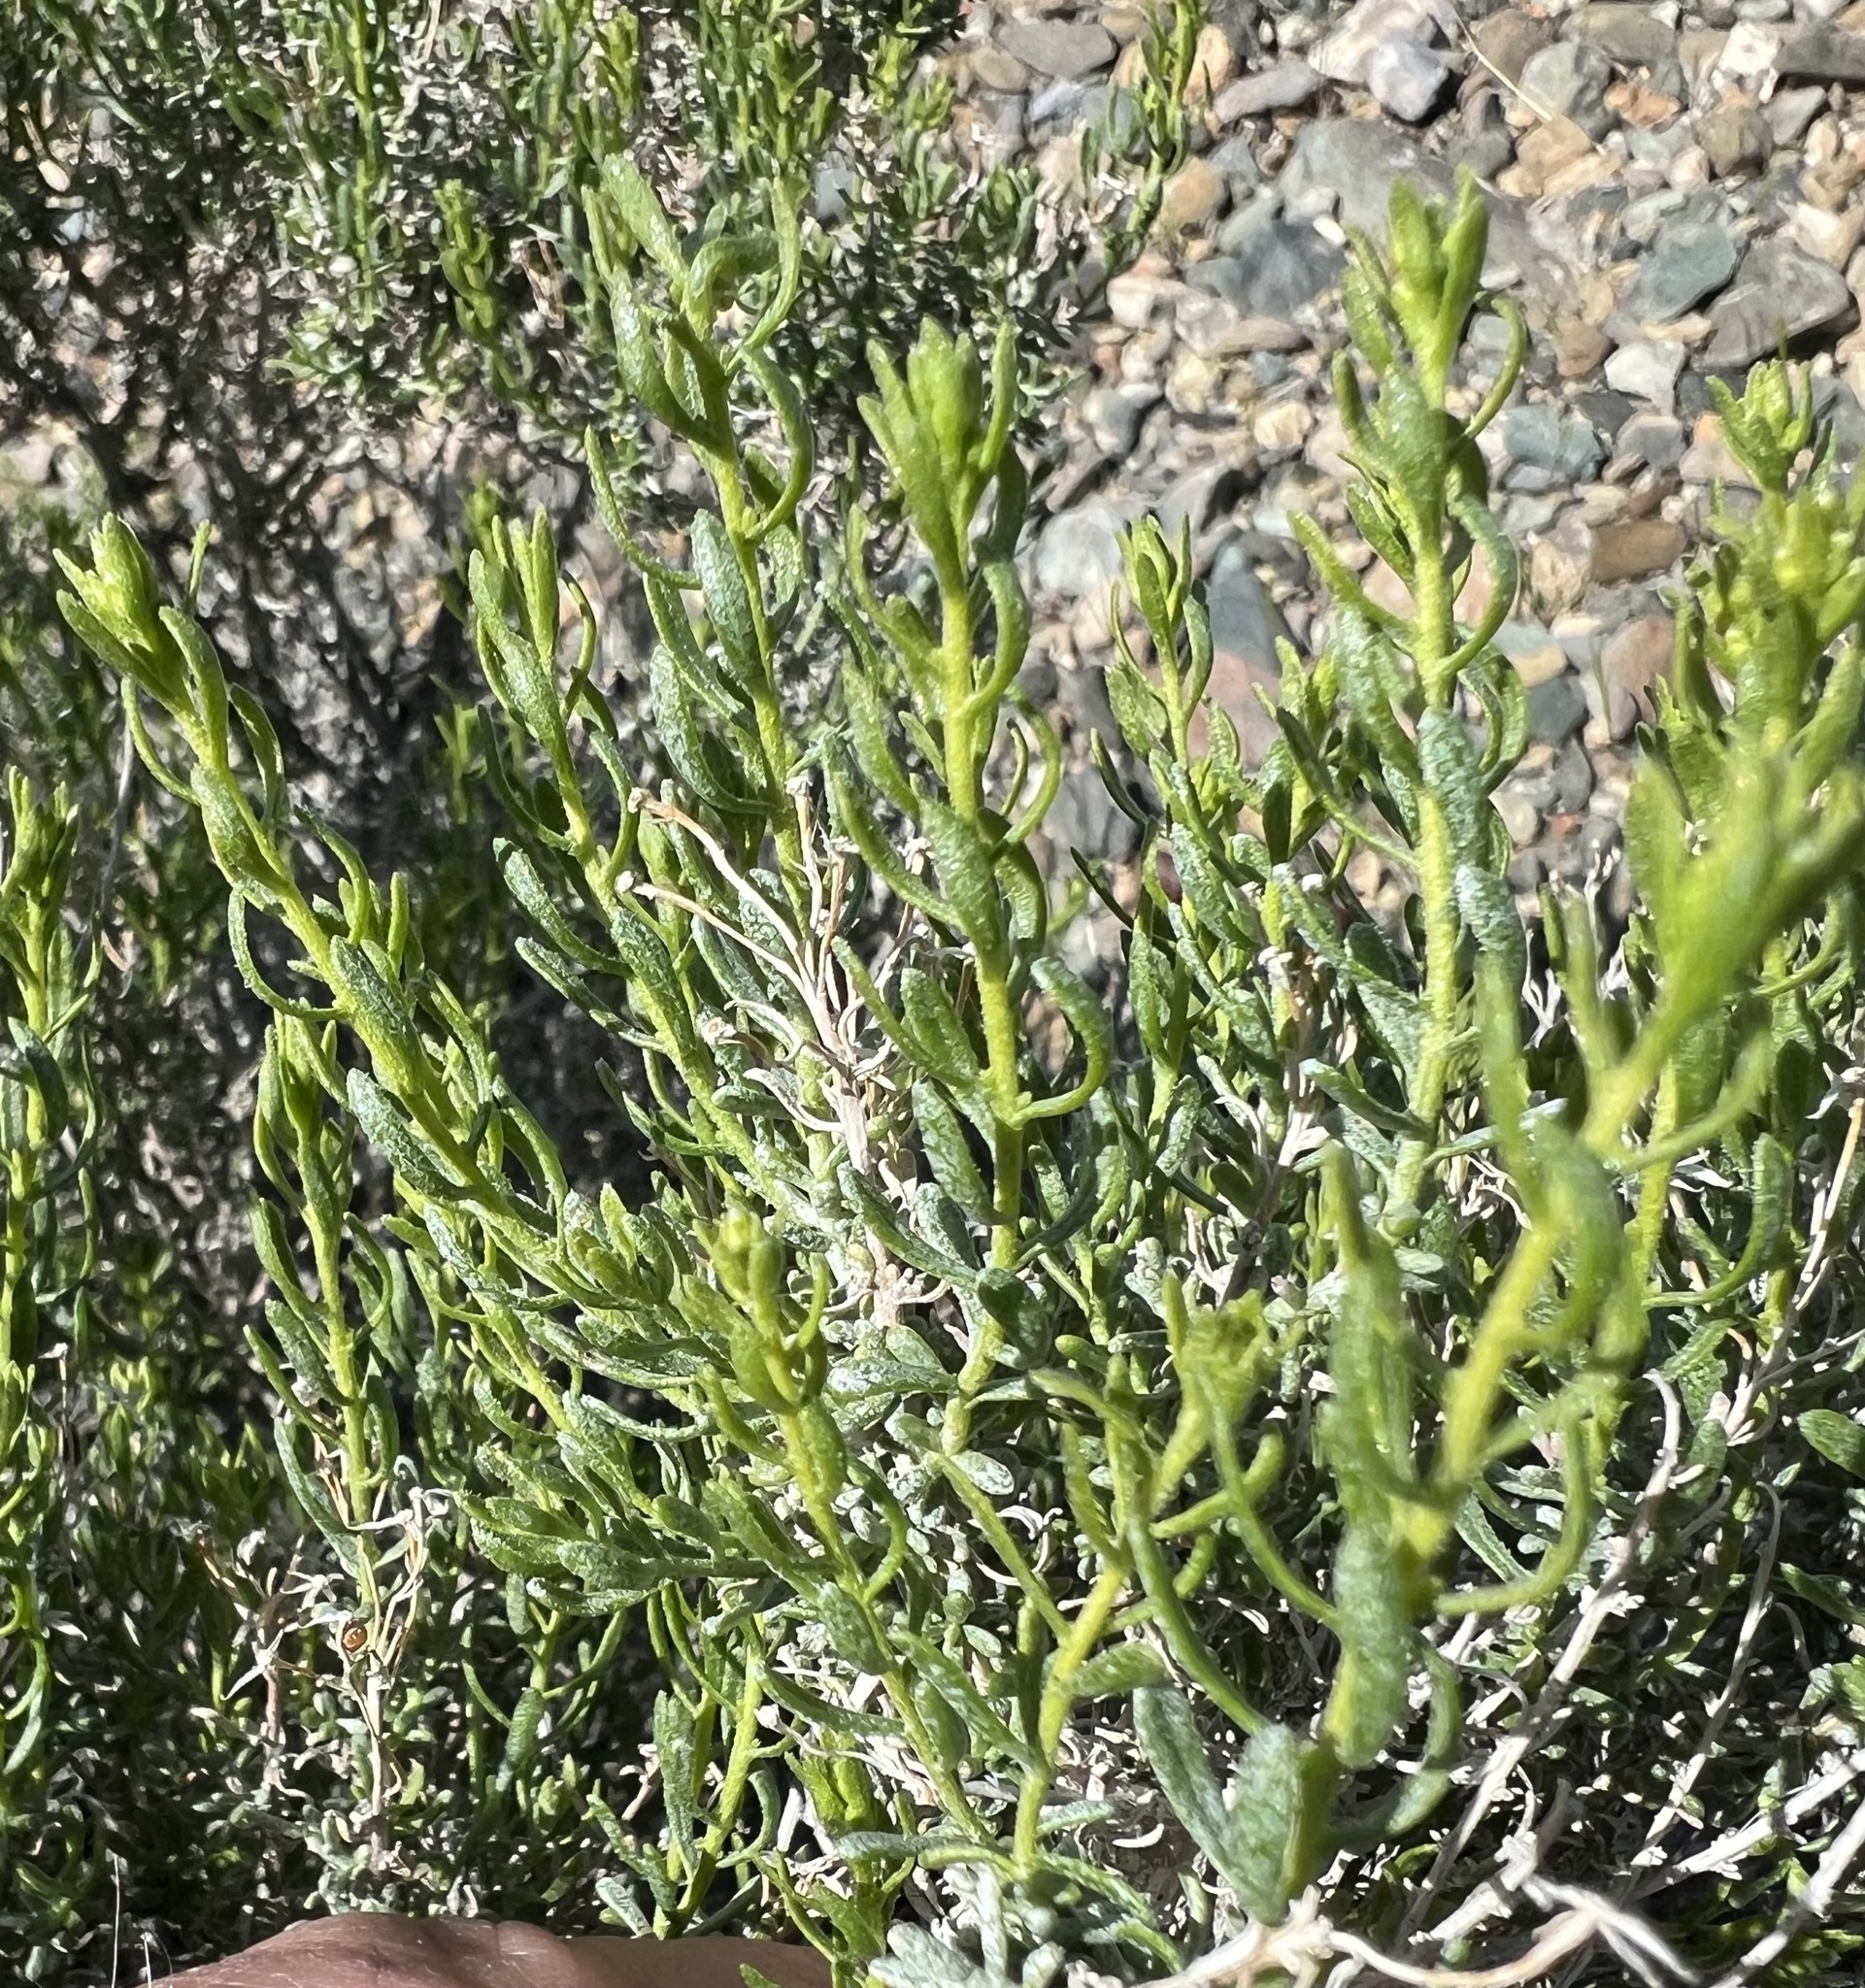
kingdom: Plantae
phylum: Tracheophyta
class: Magnoliopsida
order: Asterales
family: Asteraceae
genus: Ericameria
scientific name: Ericameria cooperi
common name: Cooper's goldenbush
